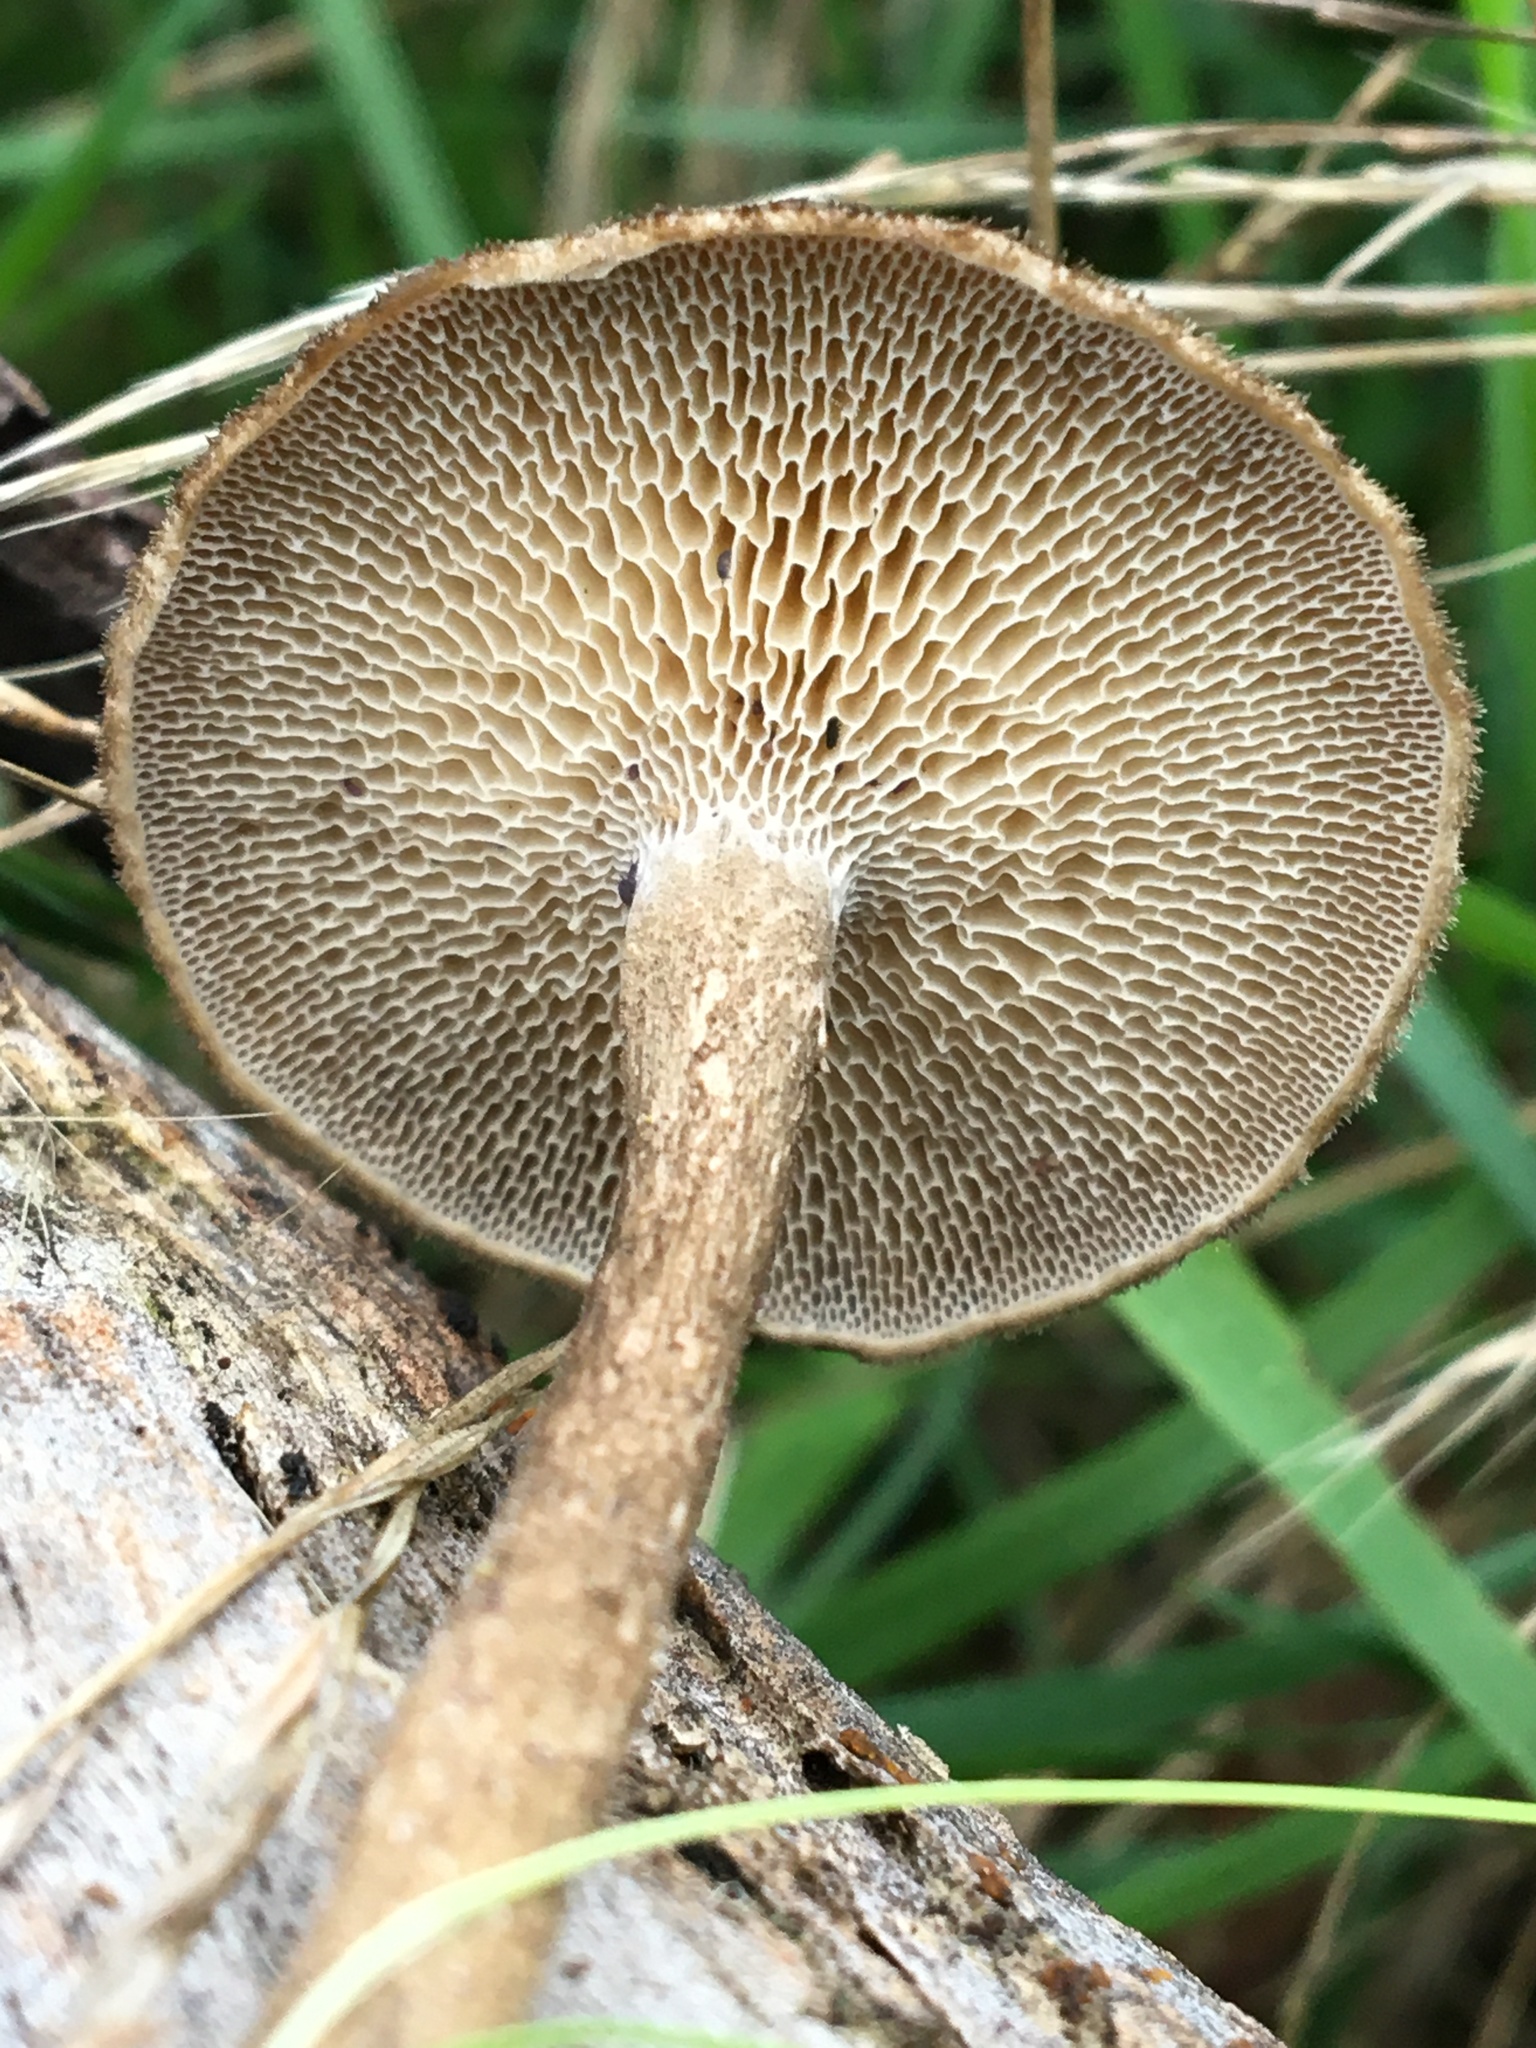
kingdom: Fungi
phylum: Basidiomycota
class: Agaricomycetes
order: Polyporales
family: Polyporaceae
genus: Lentinus
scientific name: Lentinus arcularius
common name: Spring polypore
